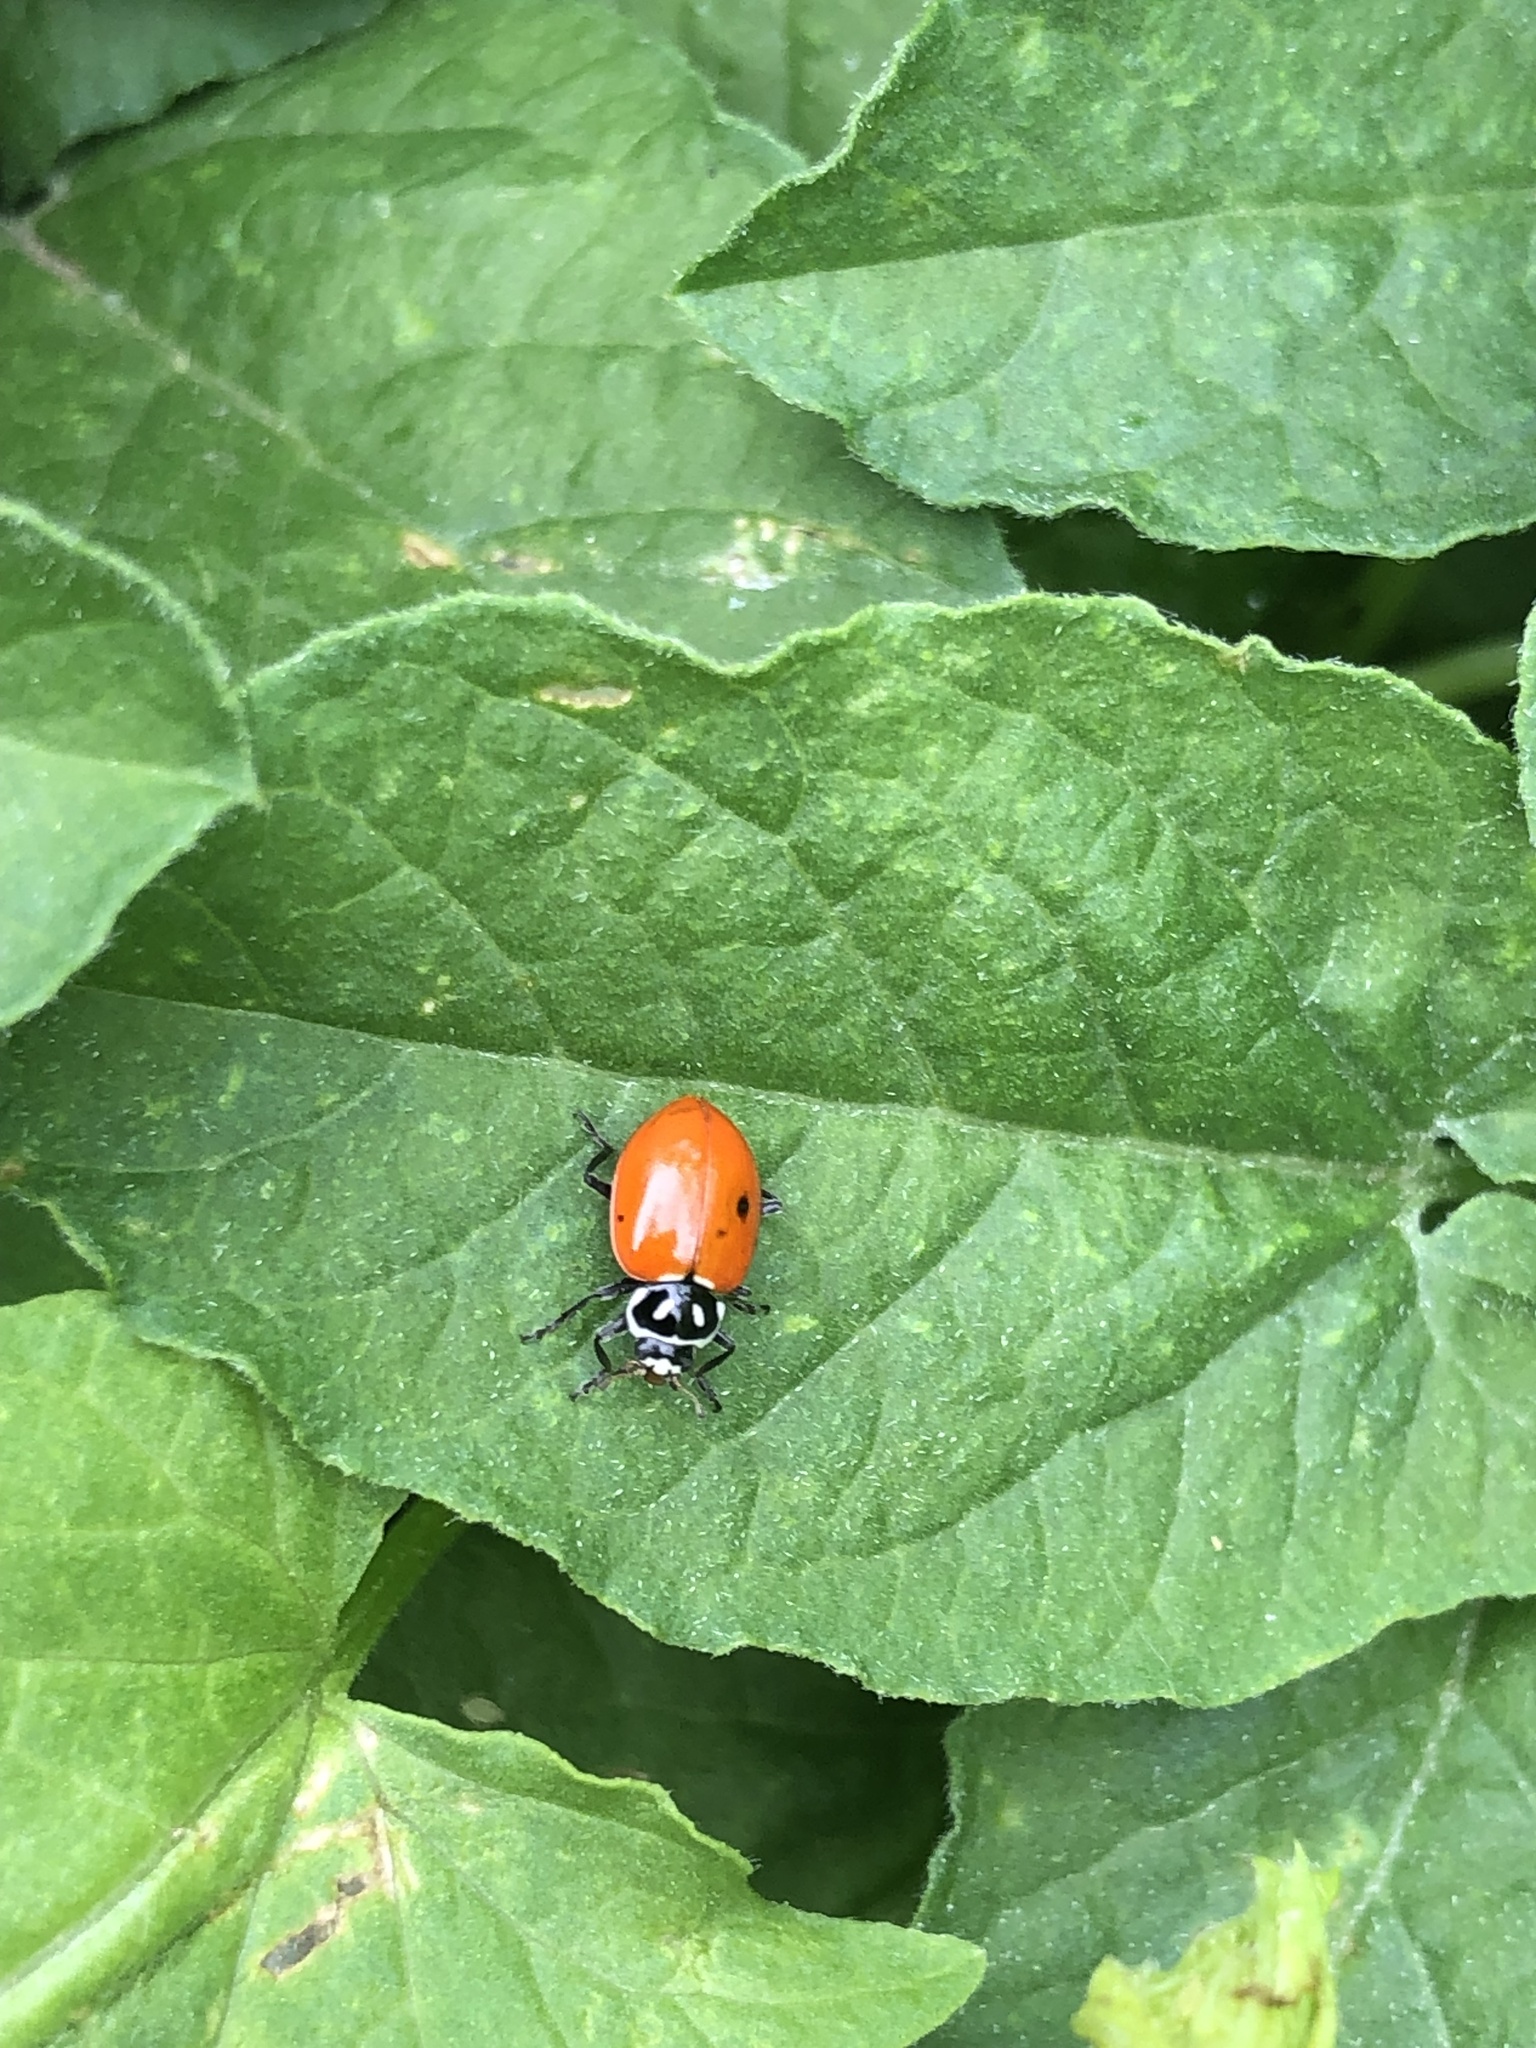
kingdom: Animalia
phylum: Arthropoda
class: Insecta
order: Coleoptera
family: Coccinellidae
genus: Hippodamia
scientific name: Hippodamia convergens
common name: Convergent lady beetle
